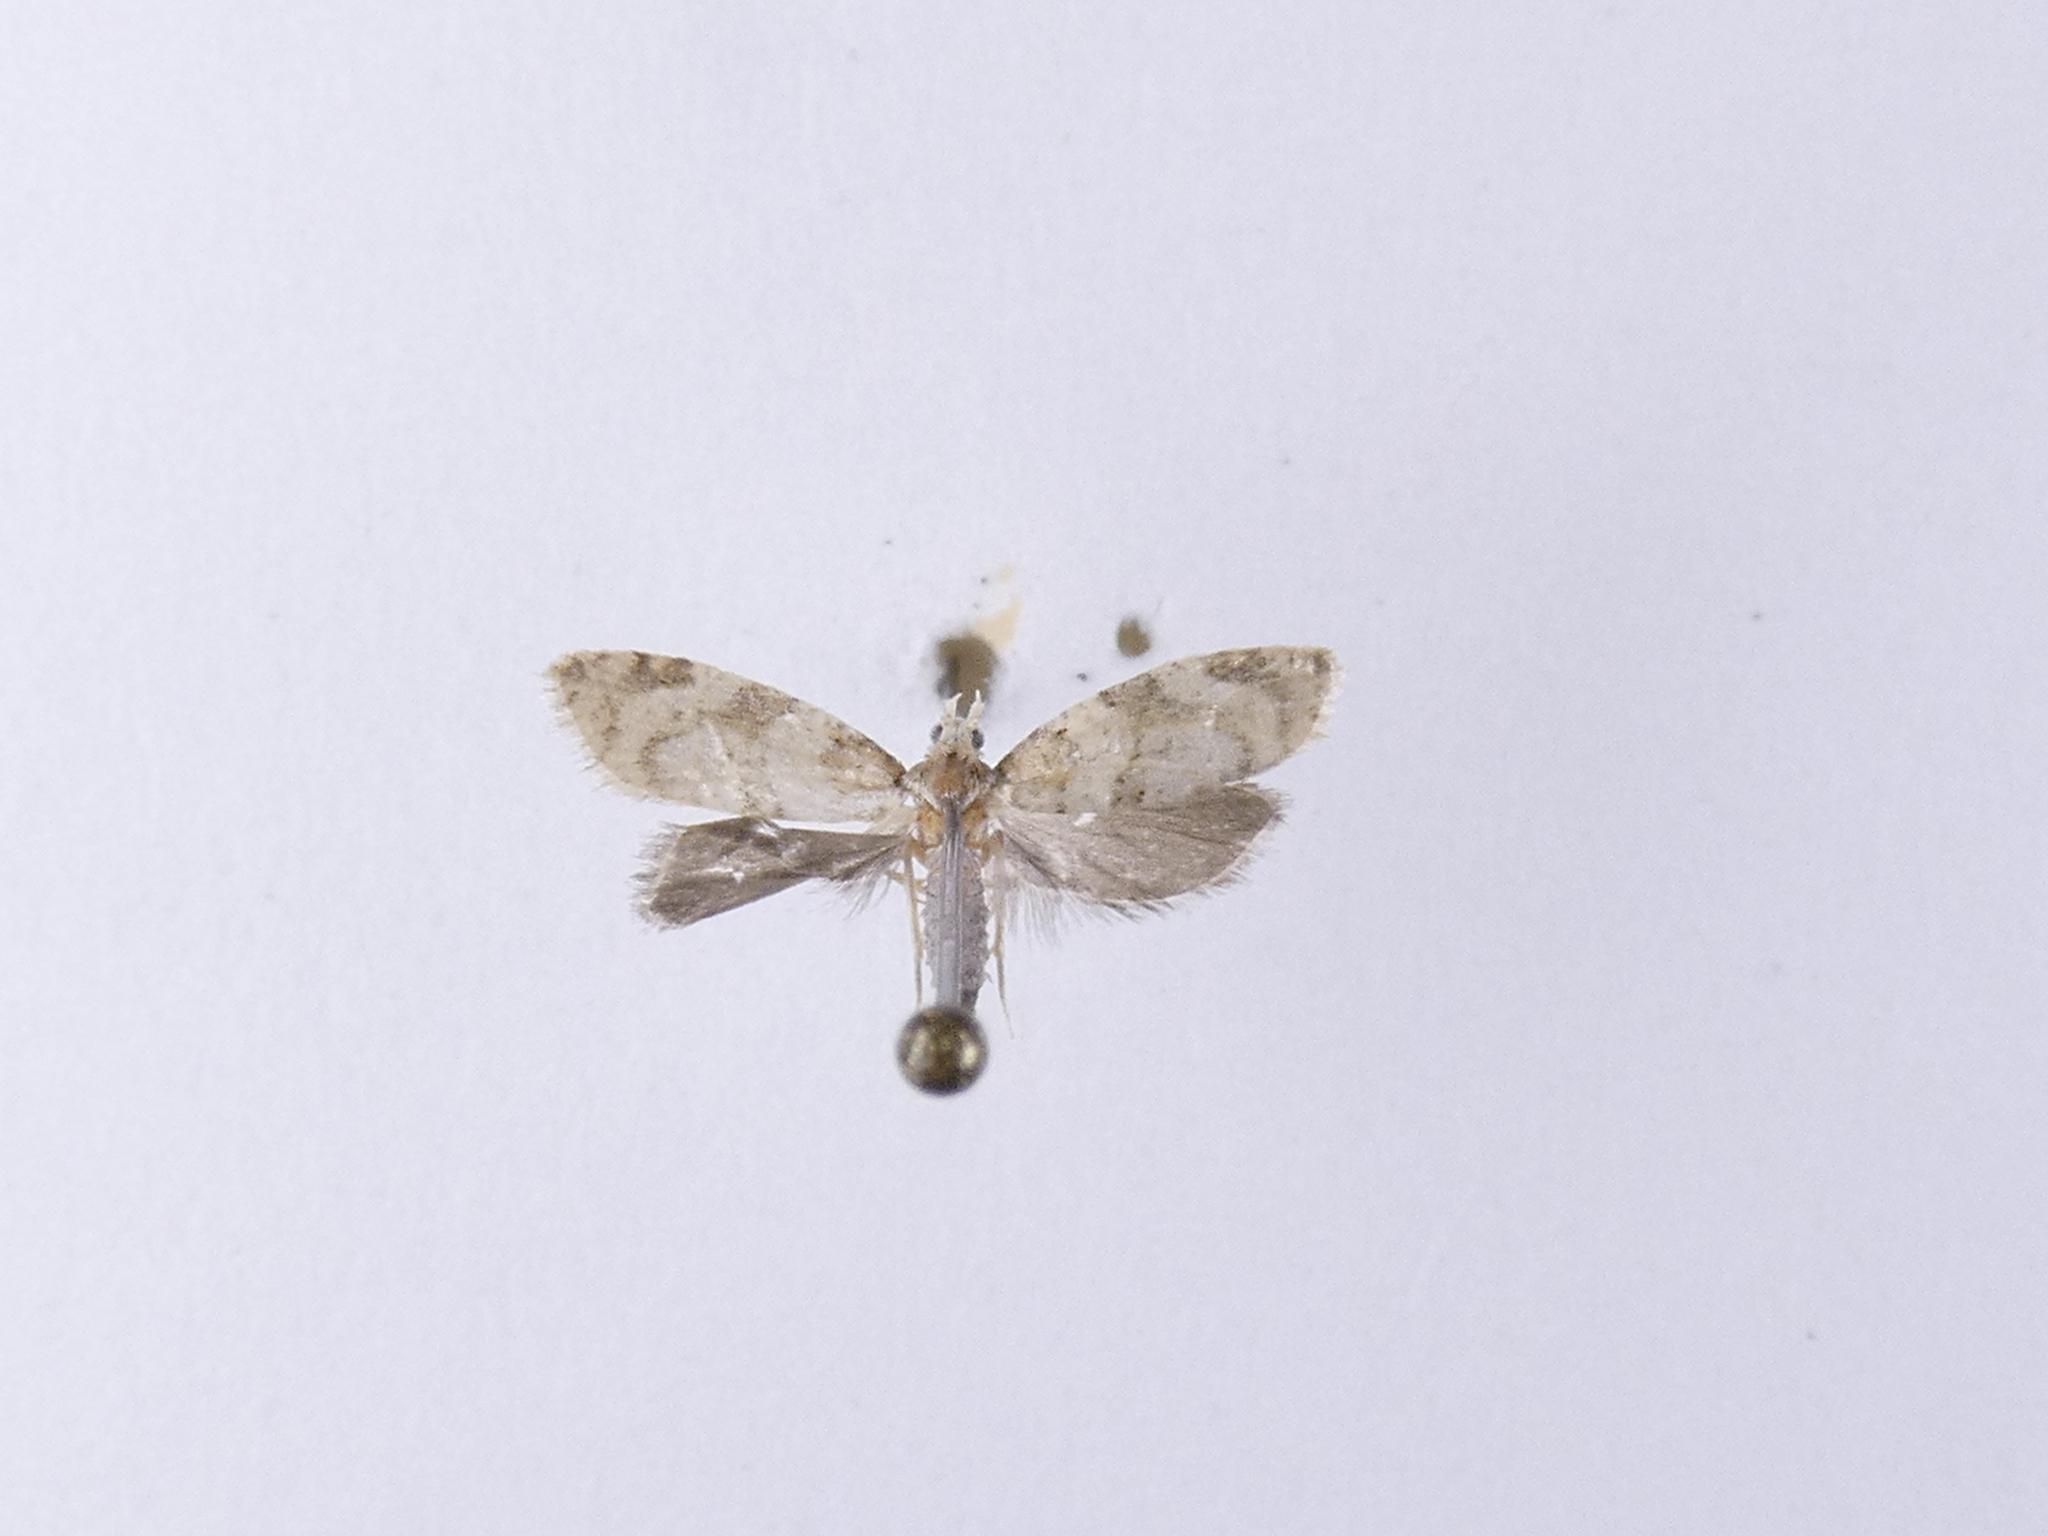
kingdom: Animalia
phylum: Arthropoda
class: Insecta
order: Lepidoptera
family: Tortricidae
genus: Dipterina
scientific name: Dipterina imbriferana
